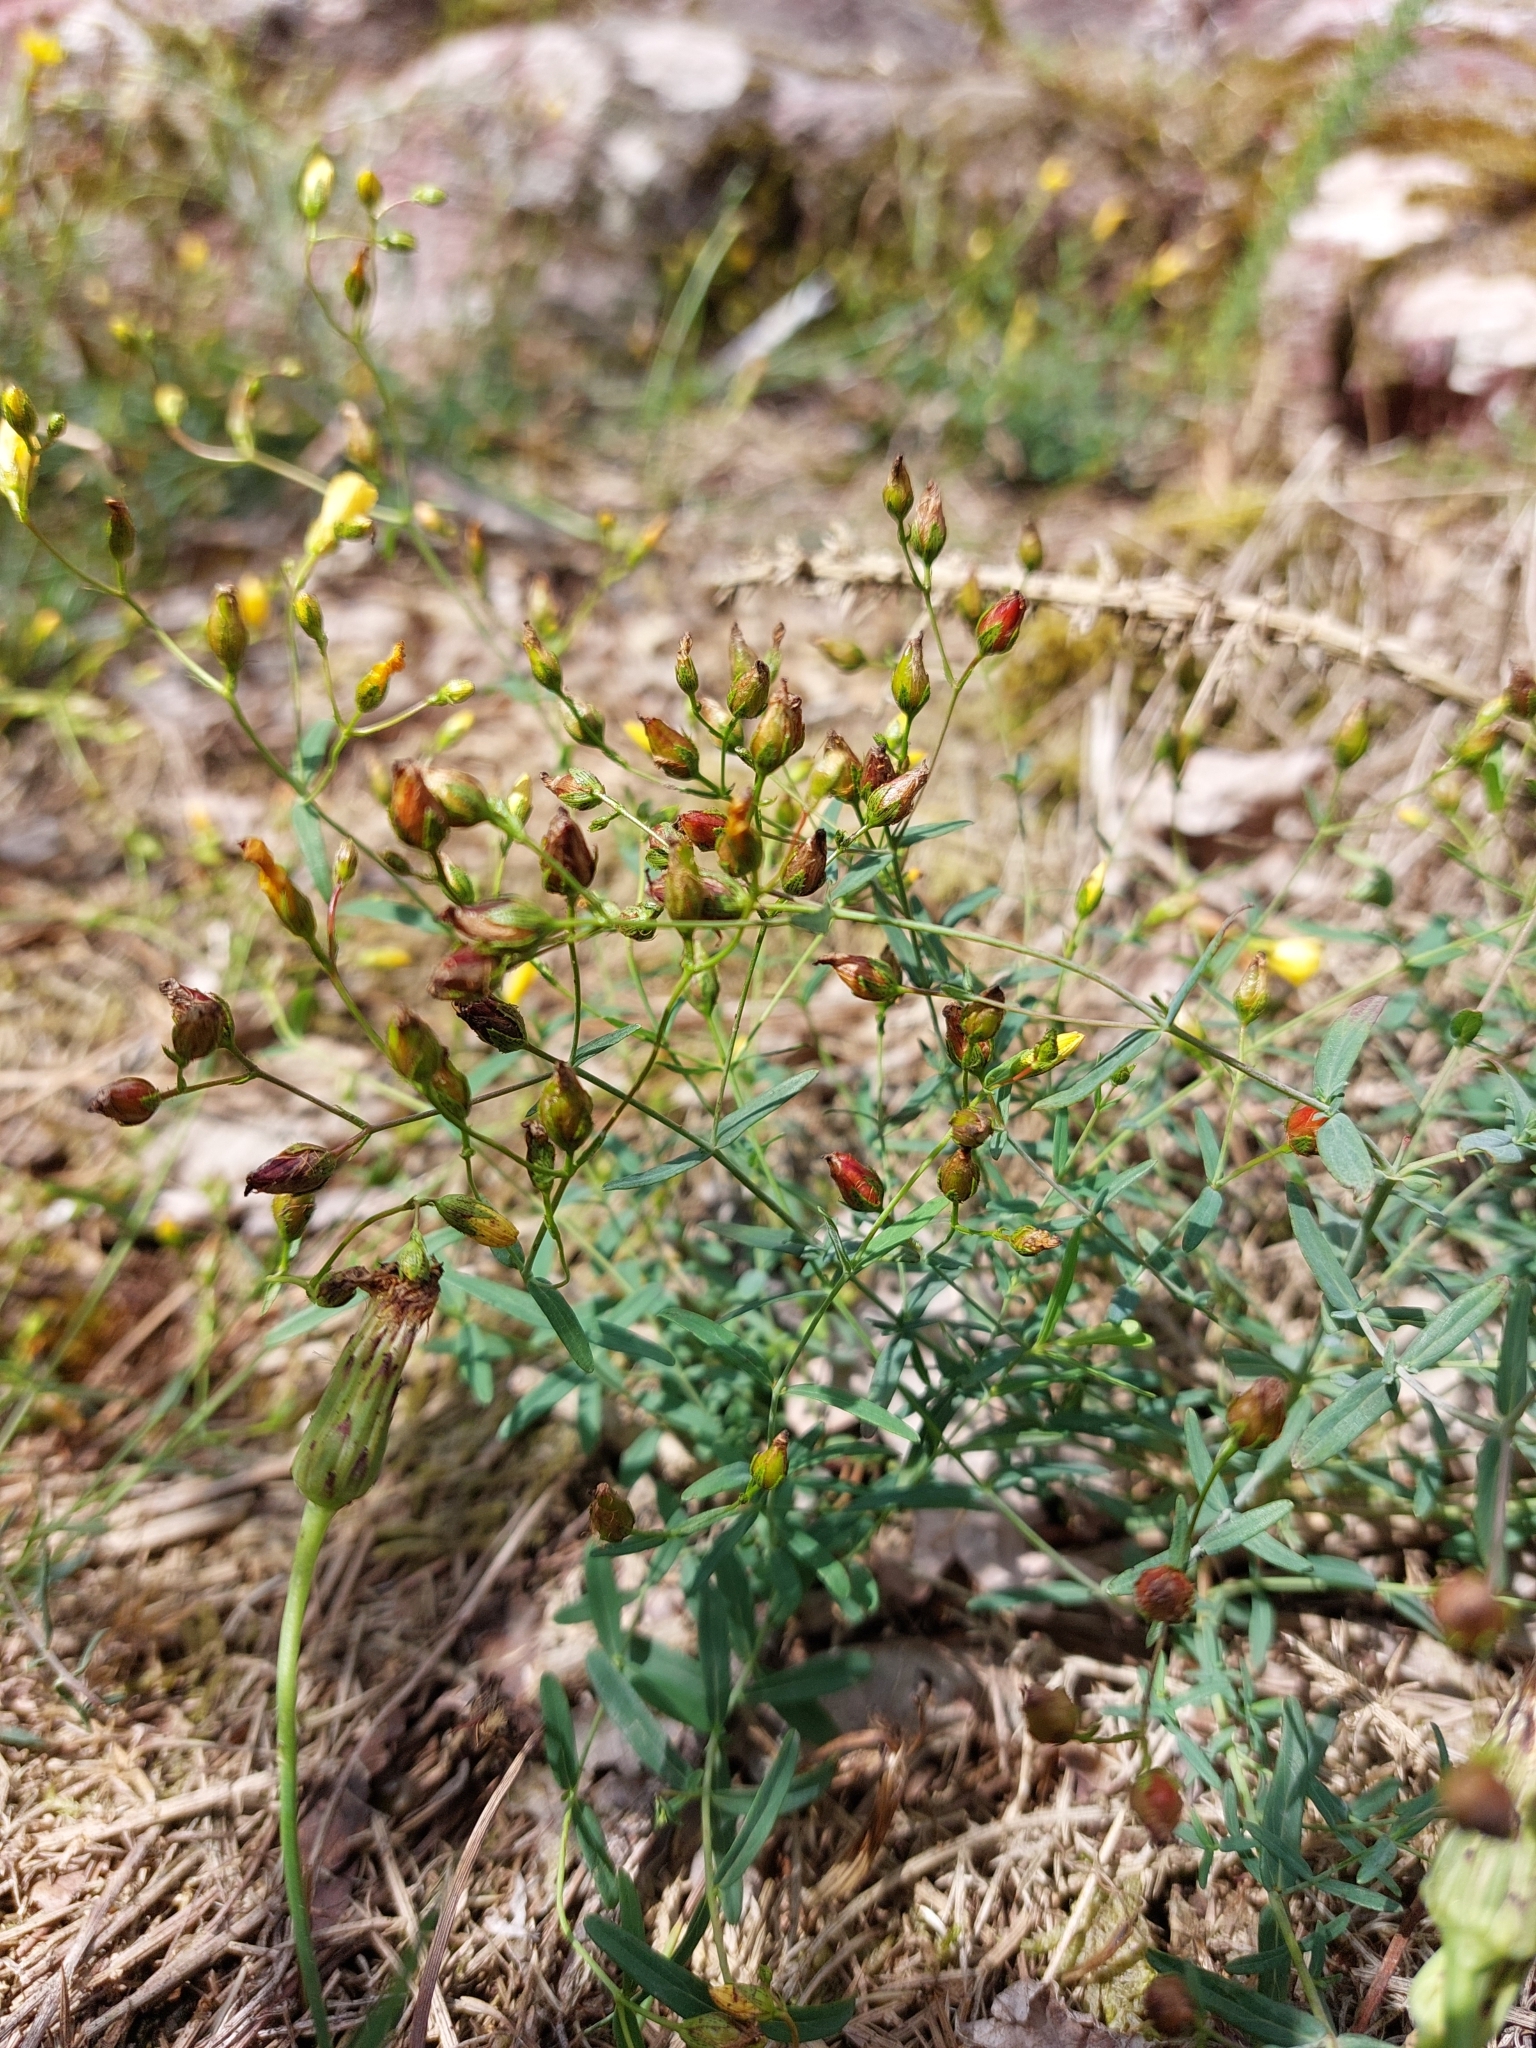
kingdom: Plantae
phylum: Tracheophyta
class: Magnoliopsida
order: Malpighiales
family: Hypericaceae
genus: Hypericum
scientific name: Hypericum linariifolium
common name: Toadflax-leaved st. john's-wort
